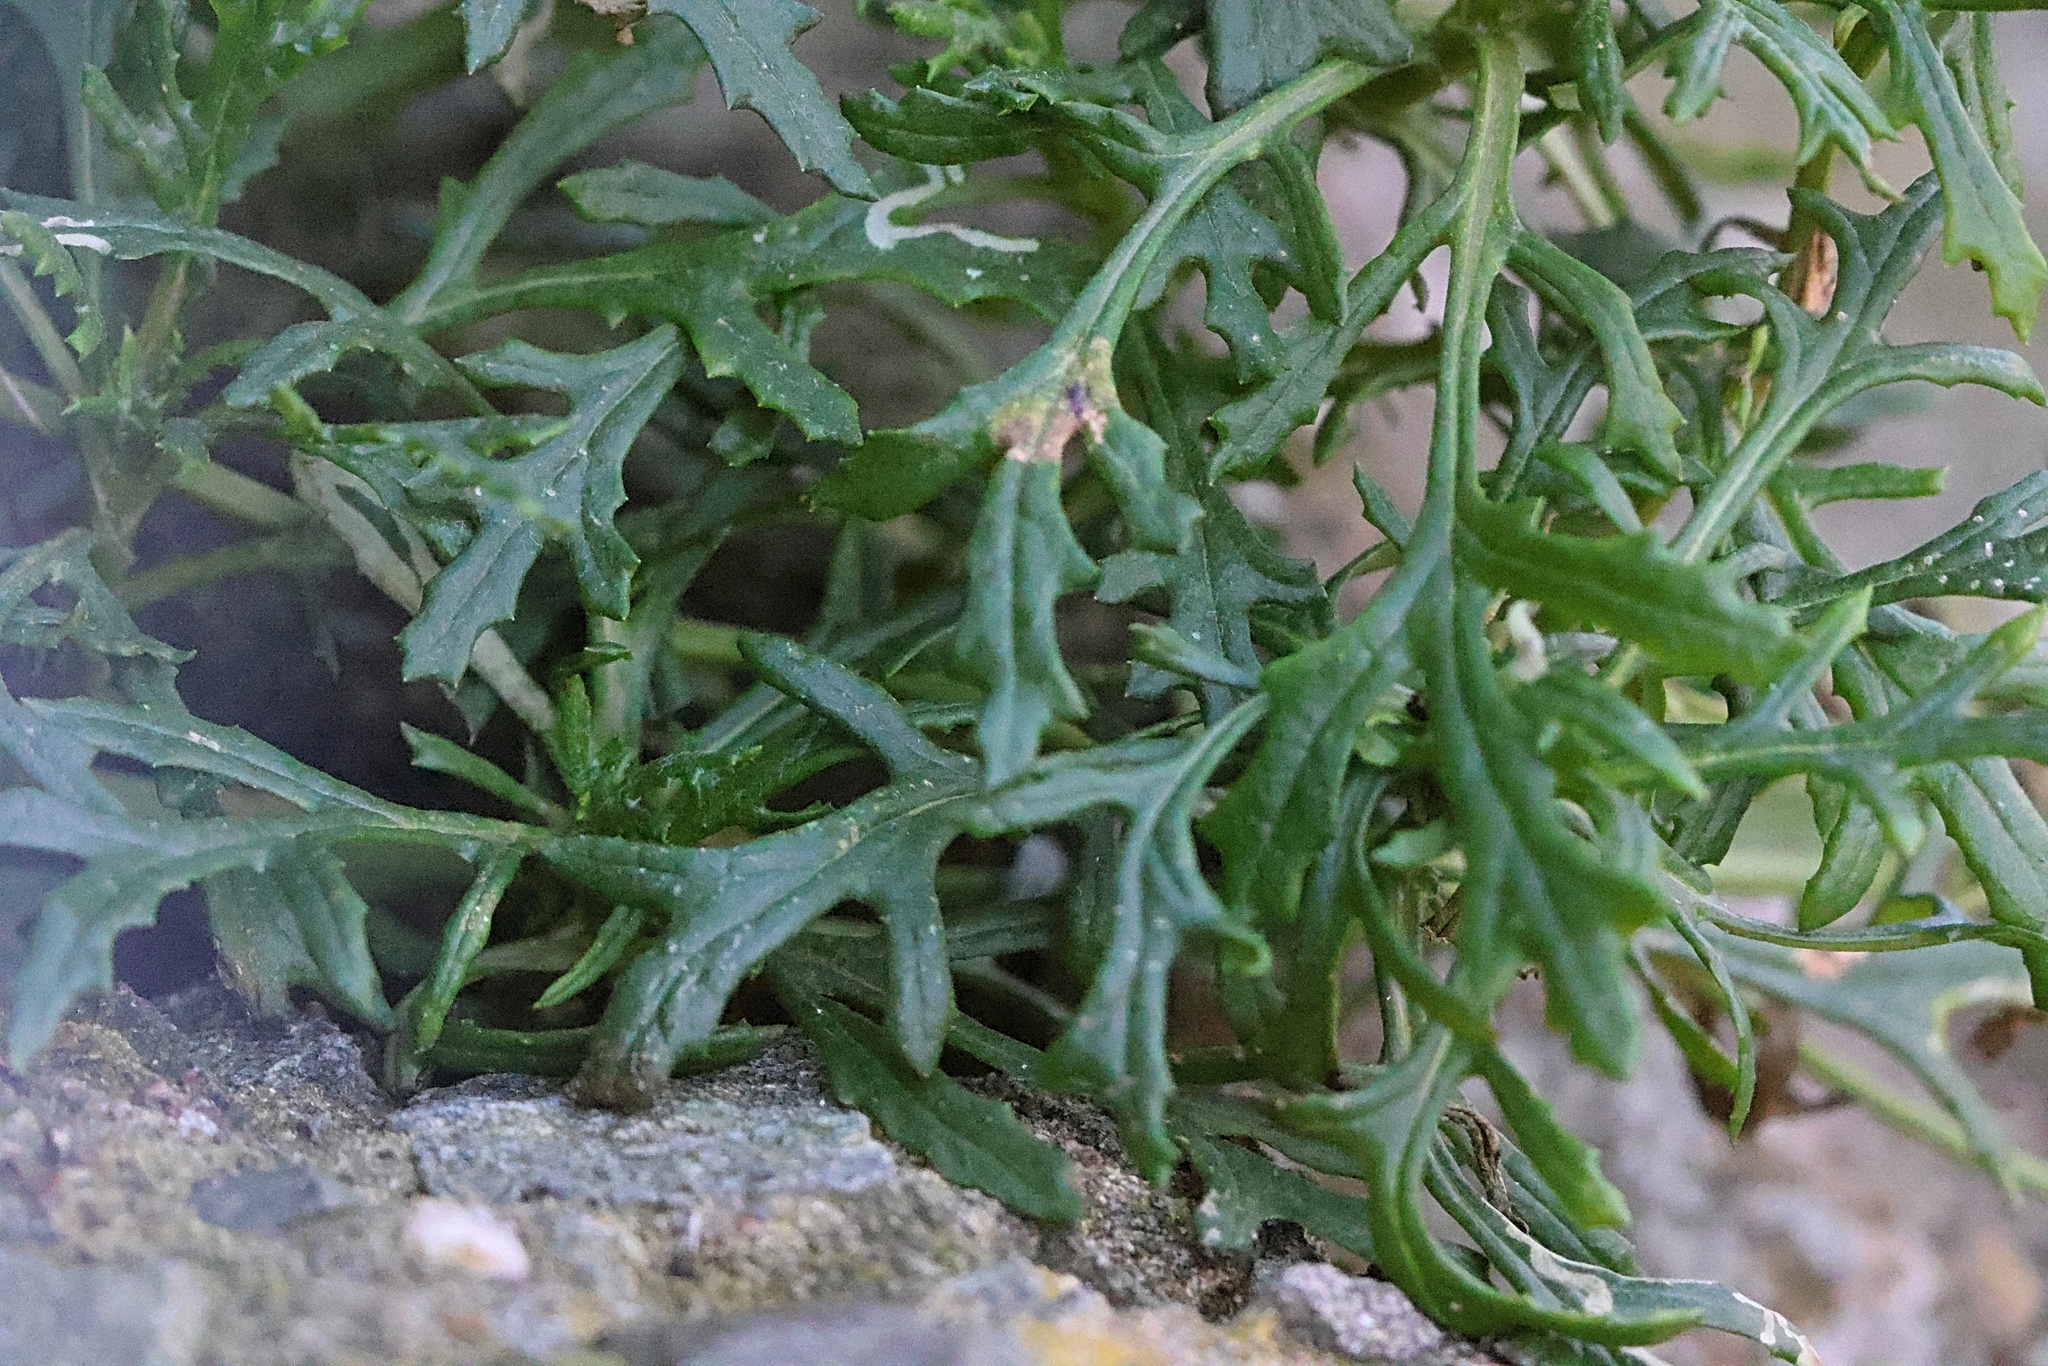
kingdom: Plantae
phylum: Tracheophyta
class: Magnoliopsida
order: Asterales
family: Asteraceae
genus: Senecio
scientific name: Senecio squalidus
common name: Oxford ragwort
